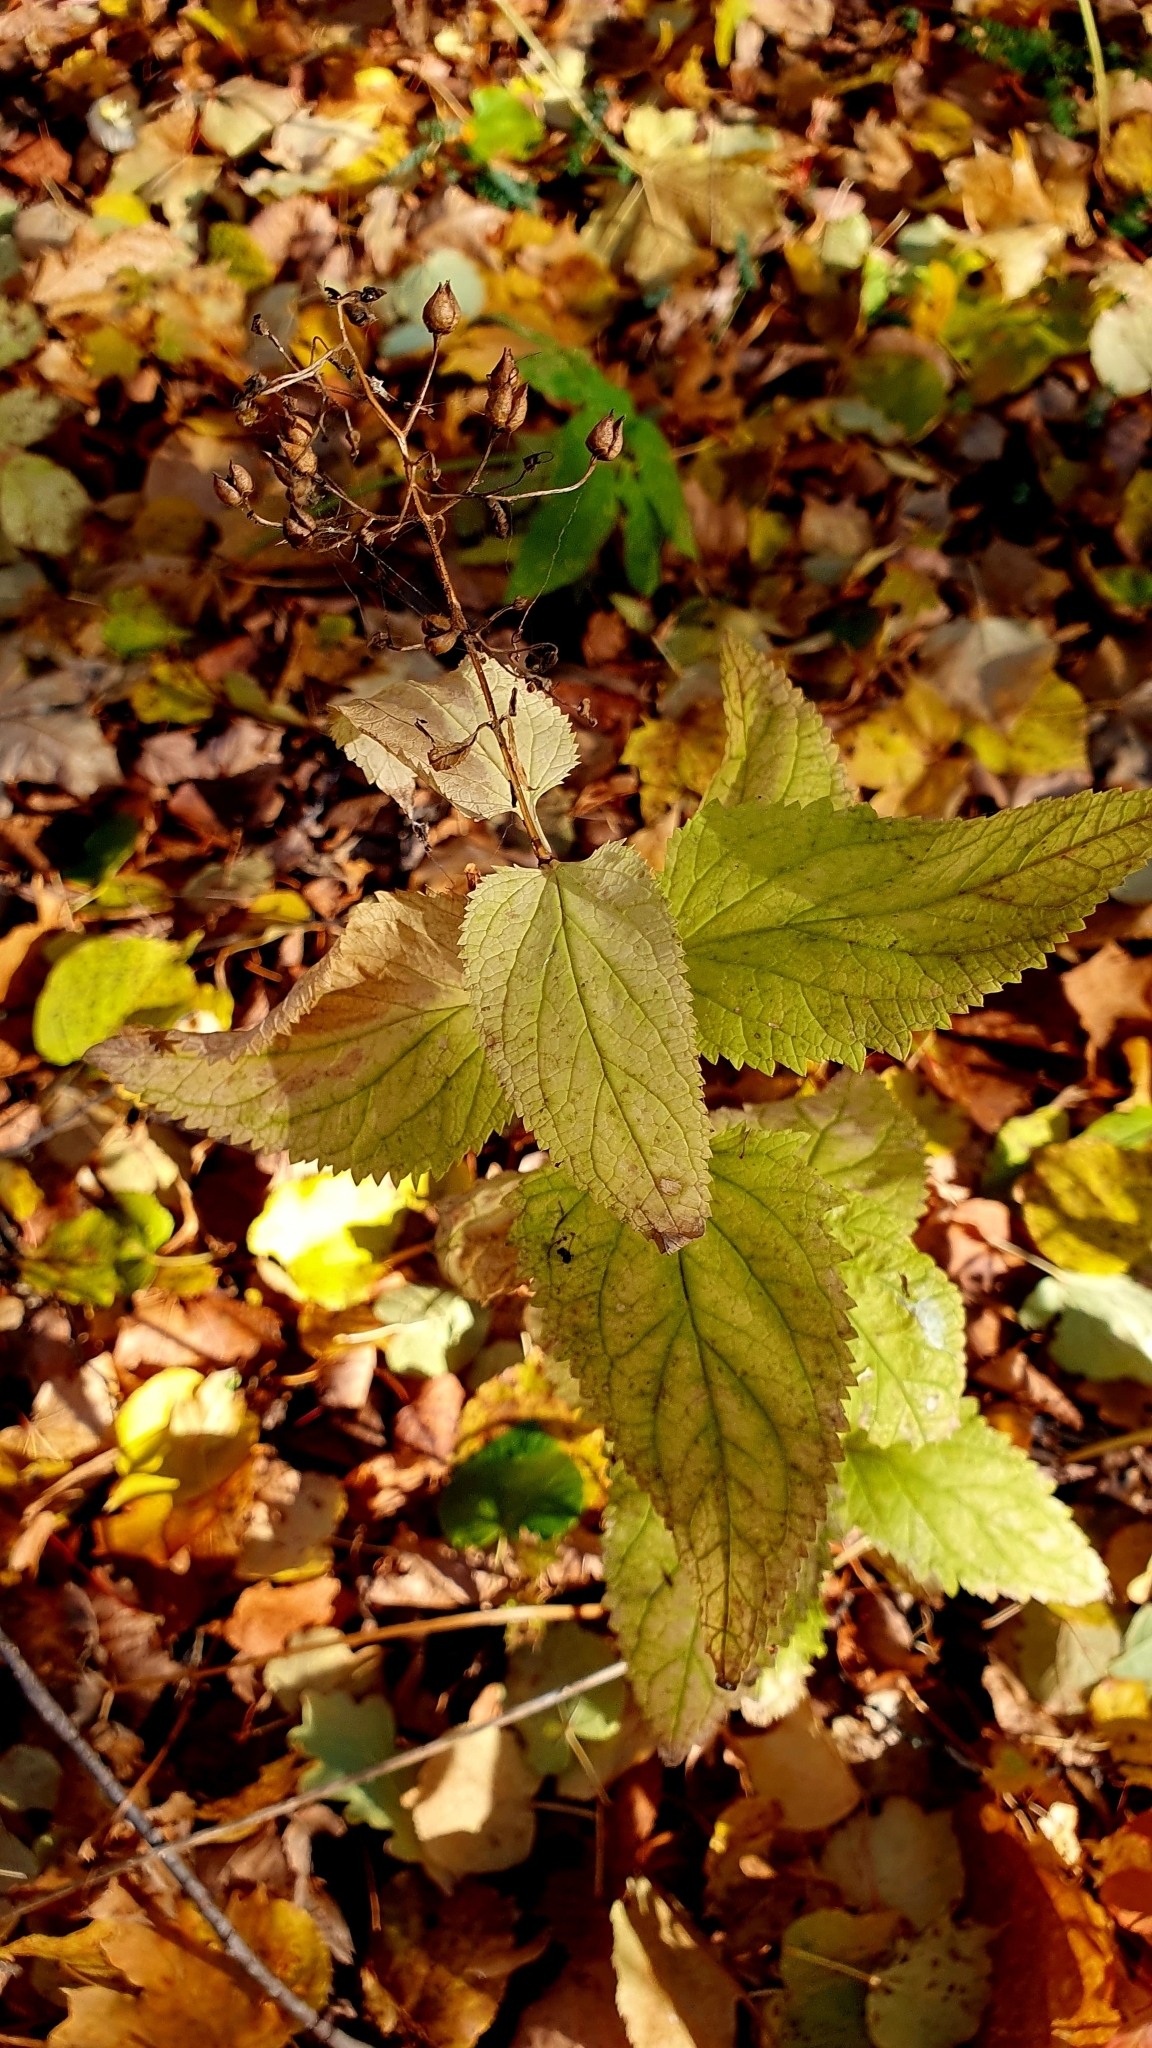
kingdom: Plantae
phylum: Tracheophyta
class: Magnoliopsida
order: Lamiales
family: Scrophulariaceae
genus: Scrophularia
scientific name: Scrophularia nodosa
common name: Common figwort
